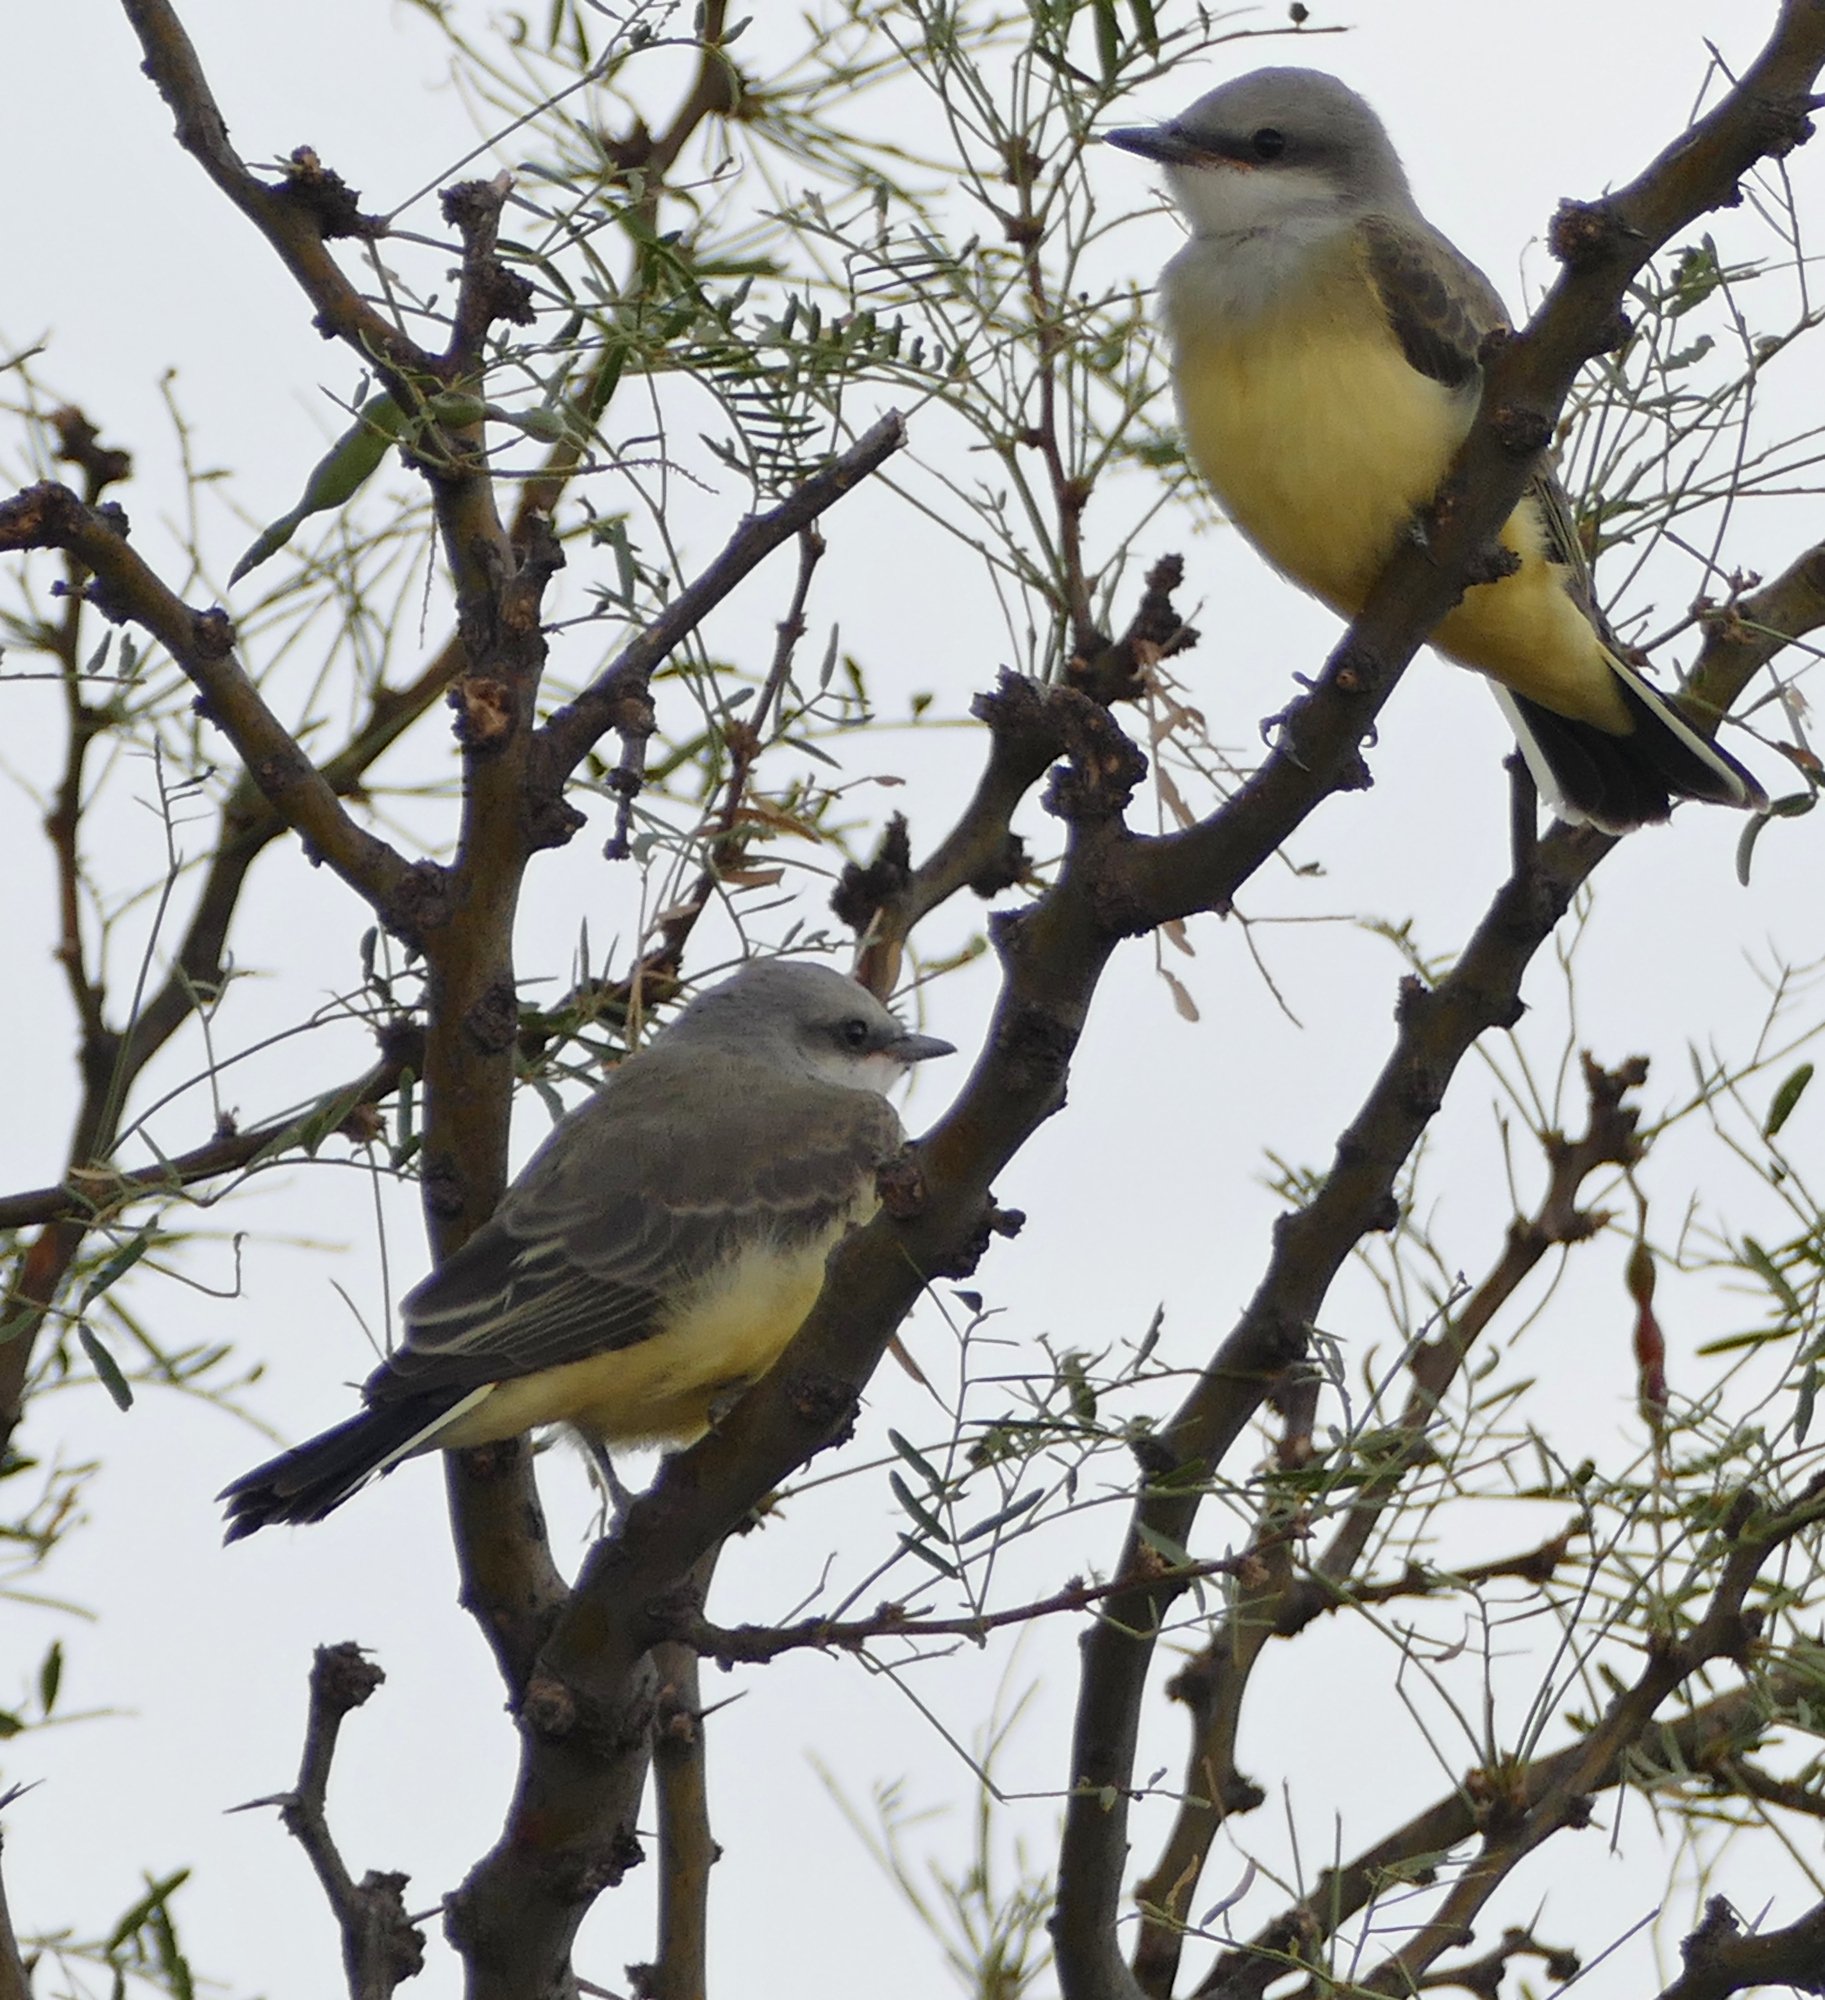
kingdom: Animalia
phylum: Chordata
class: Aves
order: Passeriformes
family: Tyrannidae
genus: Tyrannus
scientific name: Tyrannus verticalis
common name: Western kingbird
